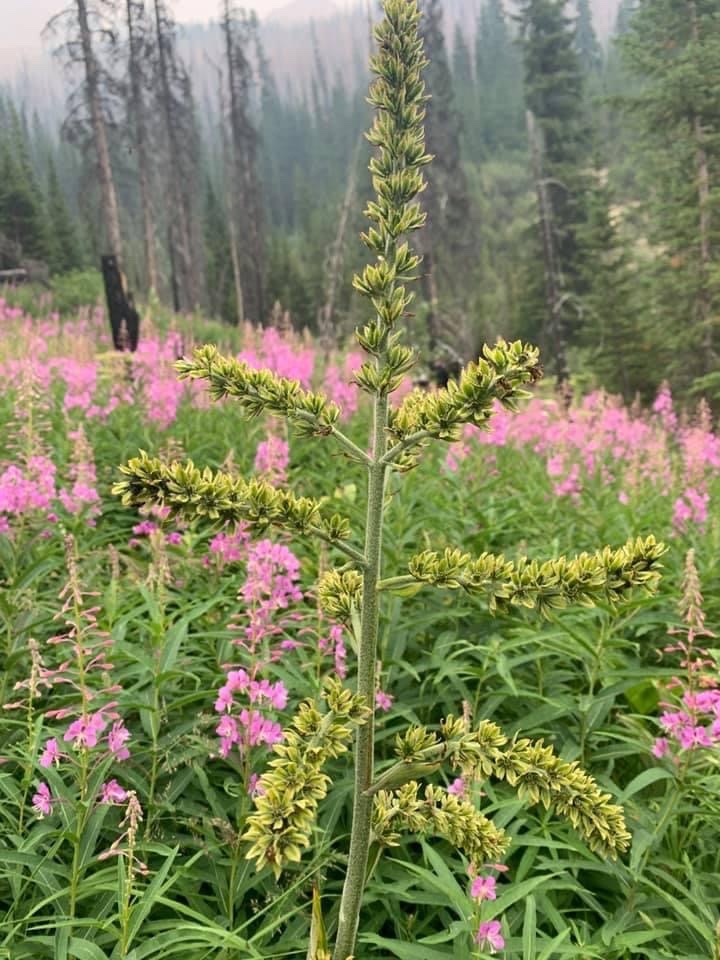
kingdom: Plantae
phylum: Tracheophyta
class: Liliopsida
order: Liliales
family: Melanthiaceae
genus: Veratrum
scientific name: Veratrum viride
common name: American false hellebore
